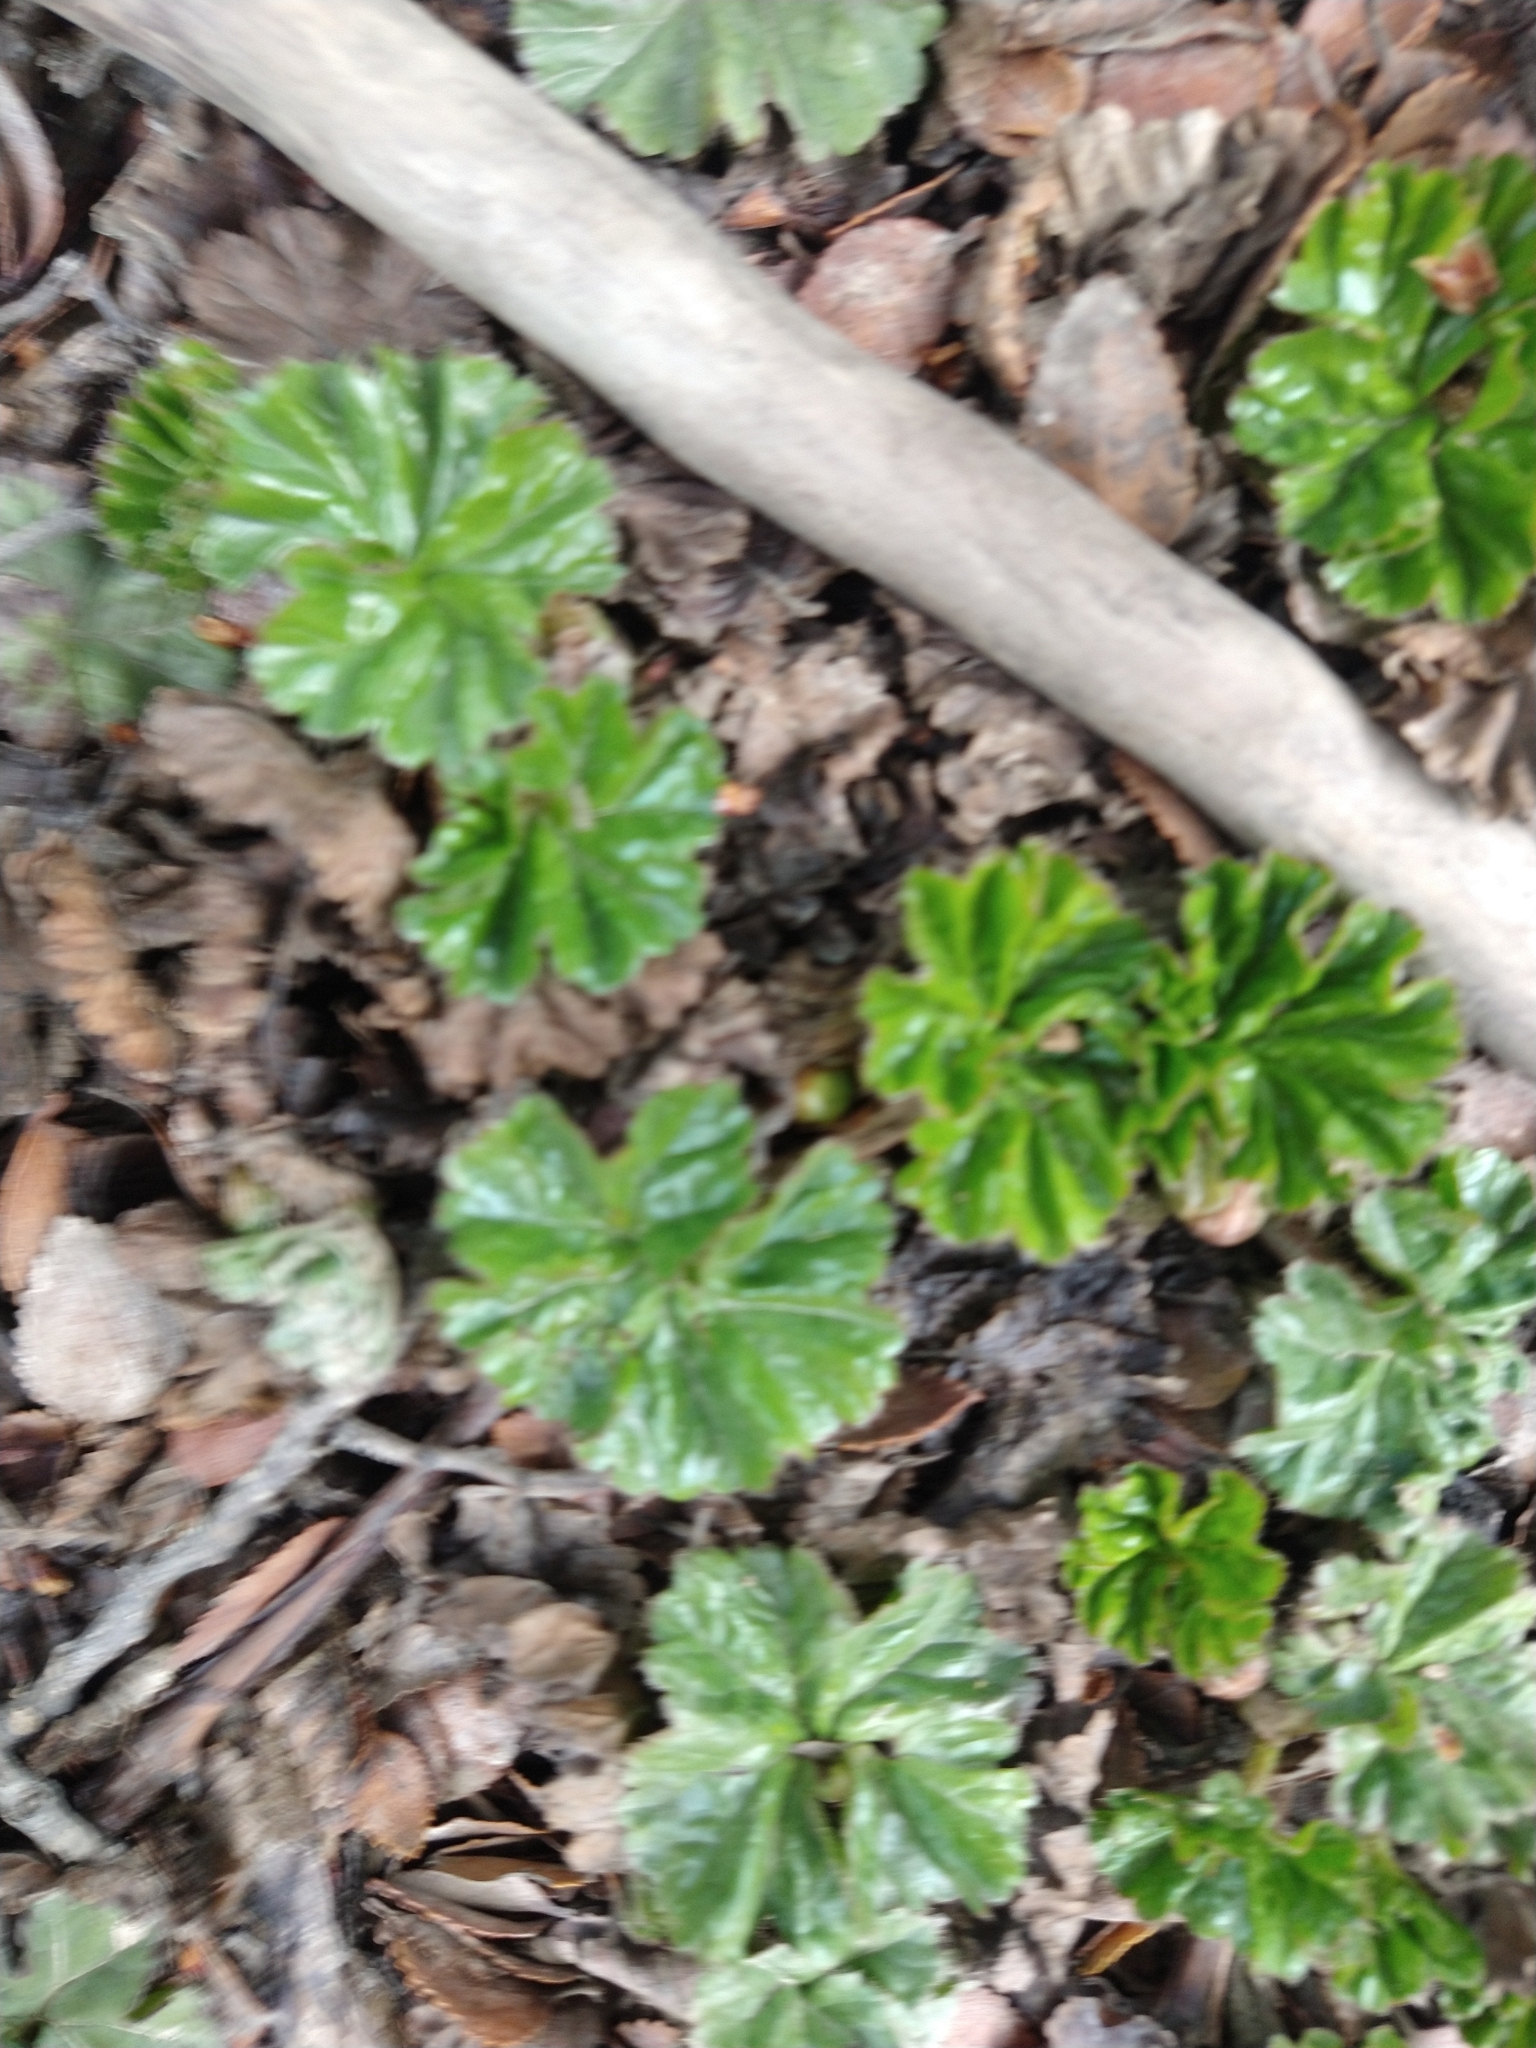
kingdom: Plantae
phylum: Tracheophyta
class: Magnoliopsida
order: Gunnerales
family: Gunneraceae
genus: Gunnera
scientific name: Gunnera magellanica
